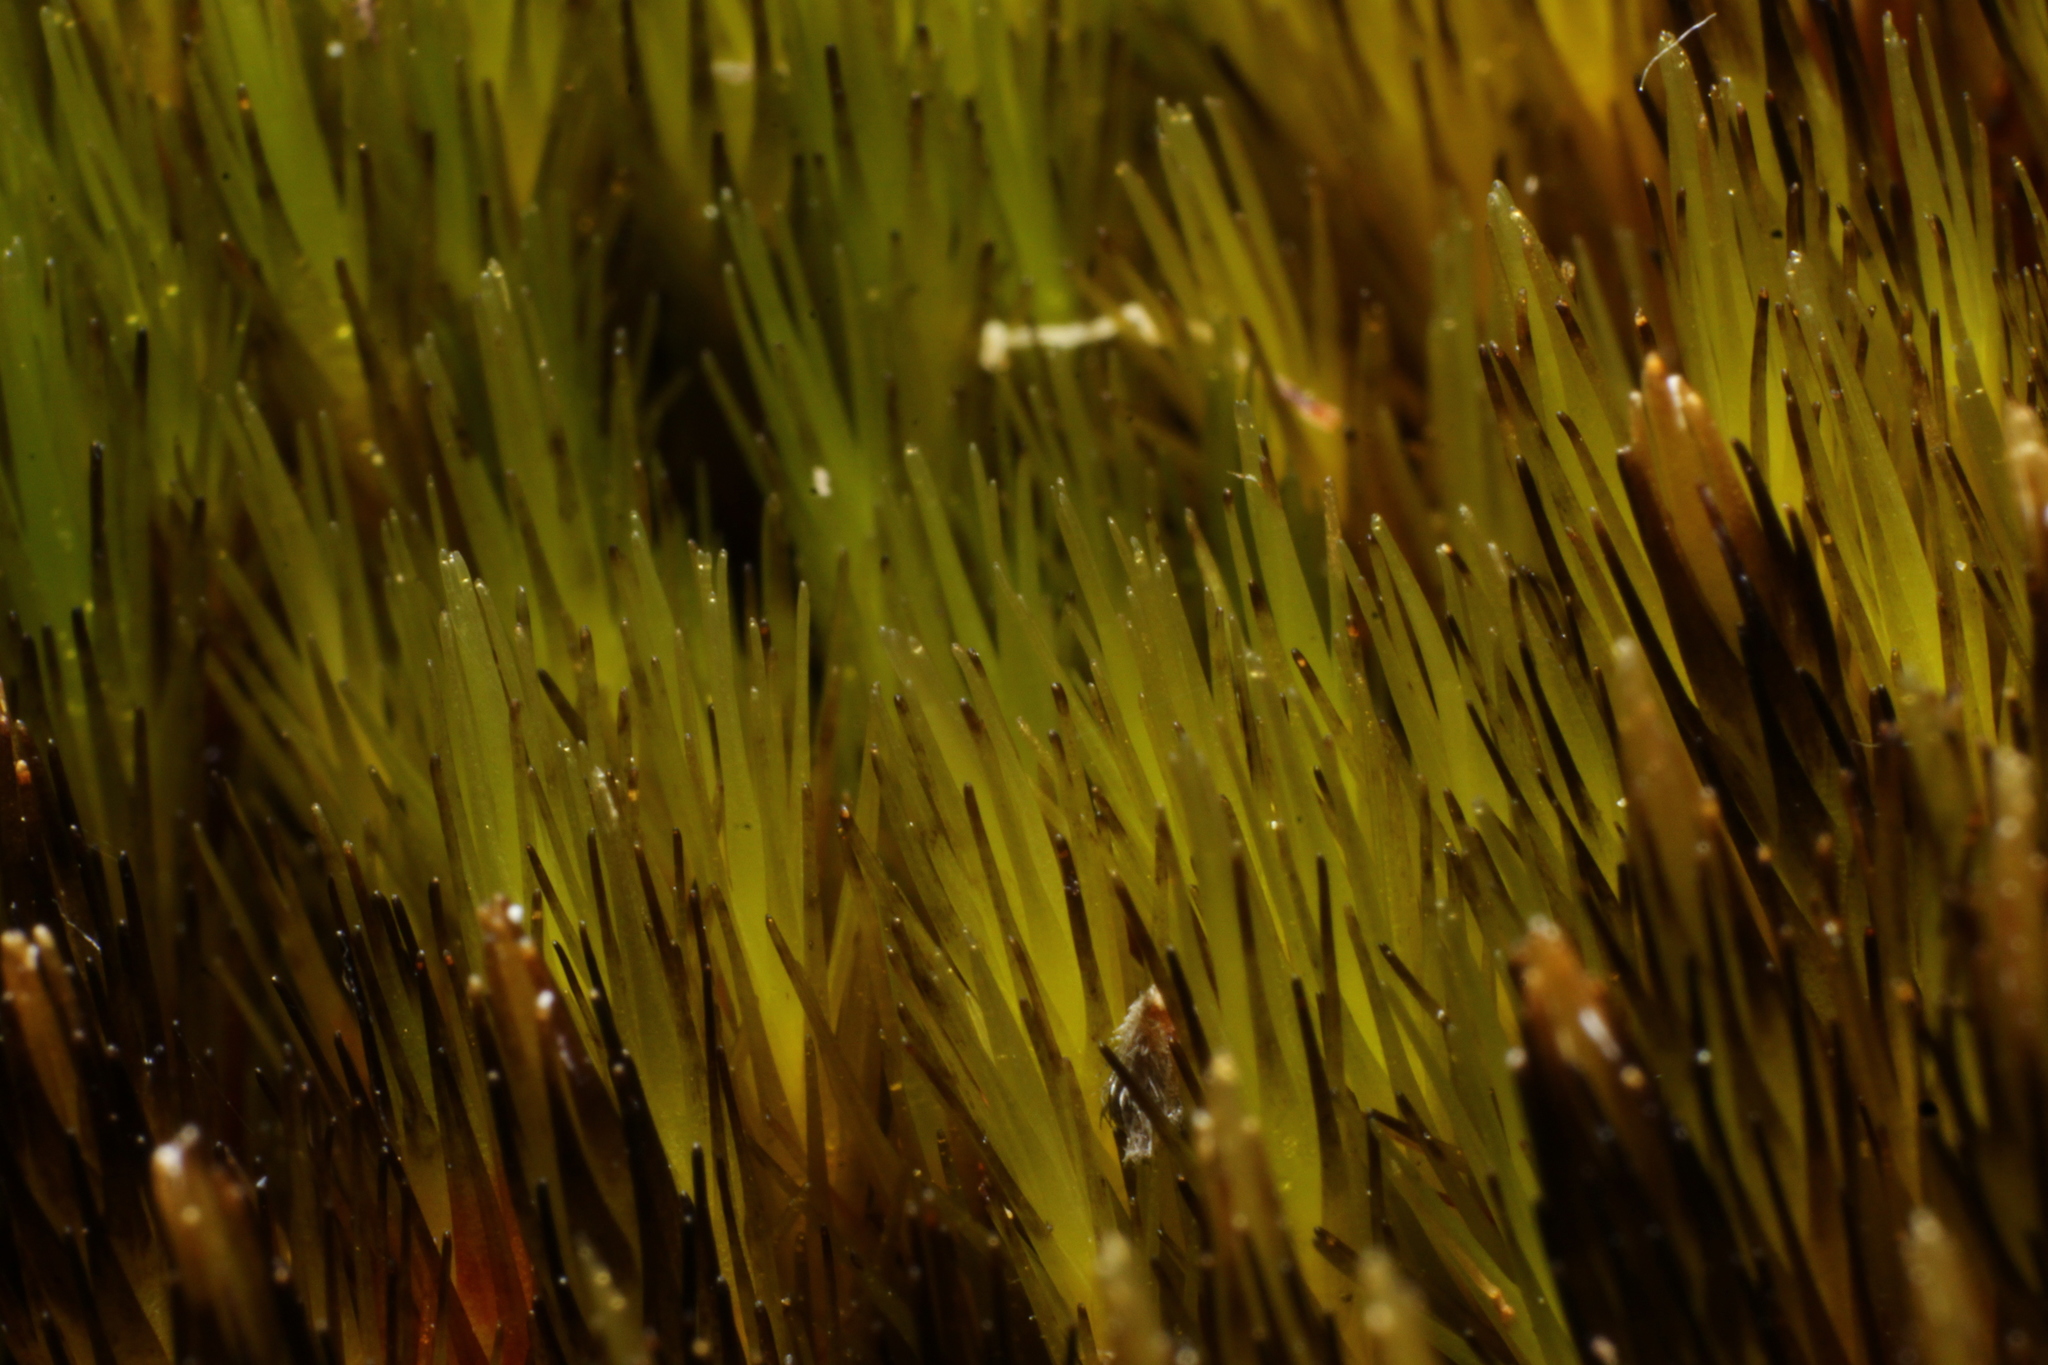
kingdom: Plantae
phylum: Bryophyta
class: Bryopsida
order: Dicranales
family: Leucobryaceae
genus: Campylopus
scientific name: Campylopus bicolor
